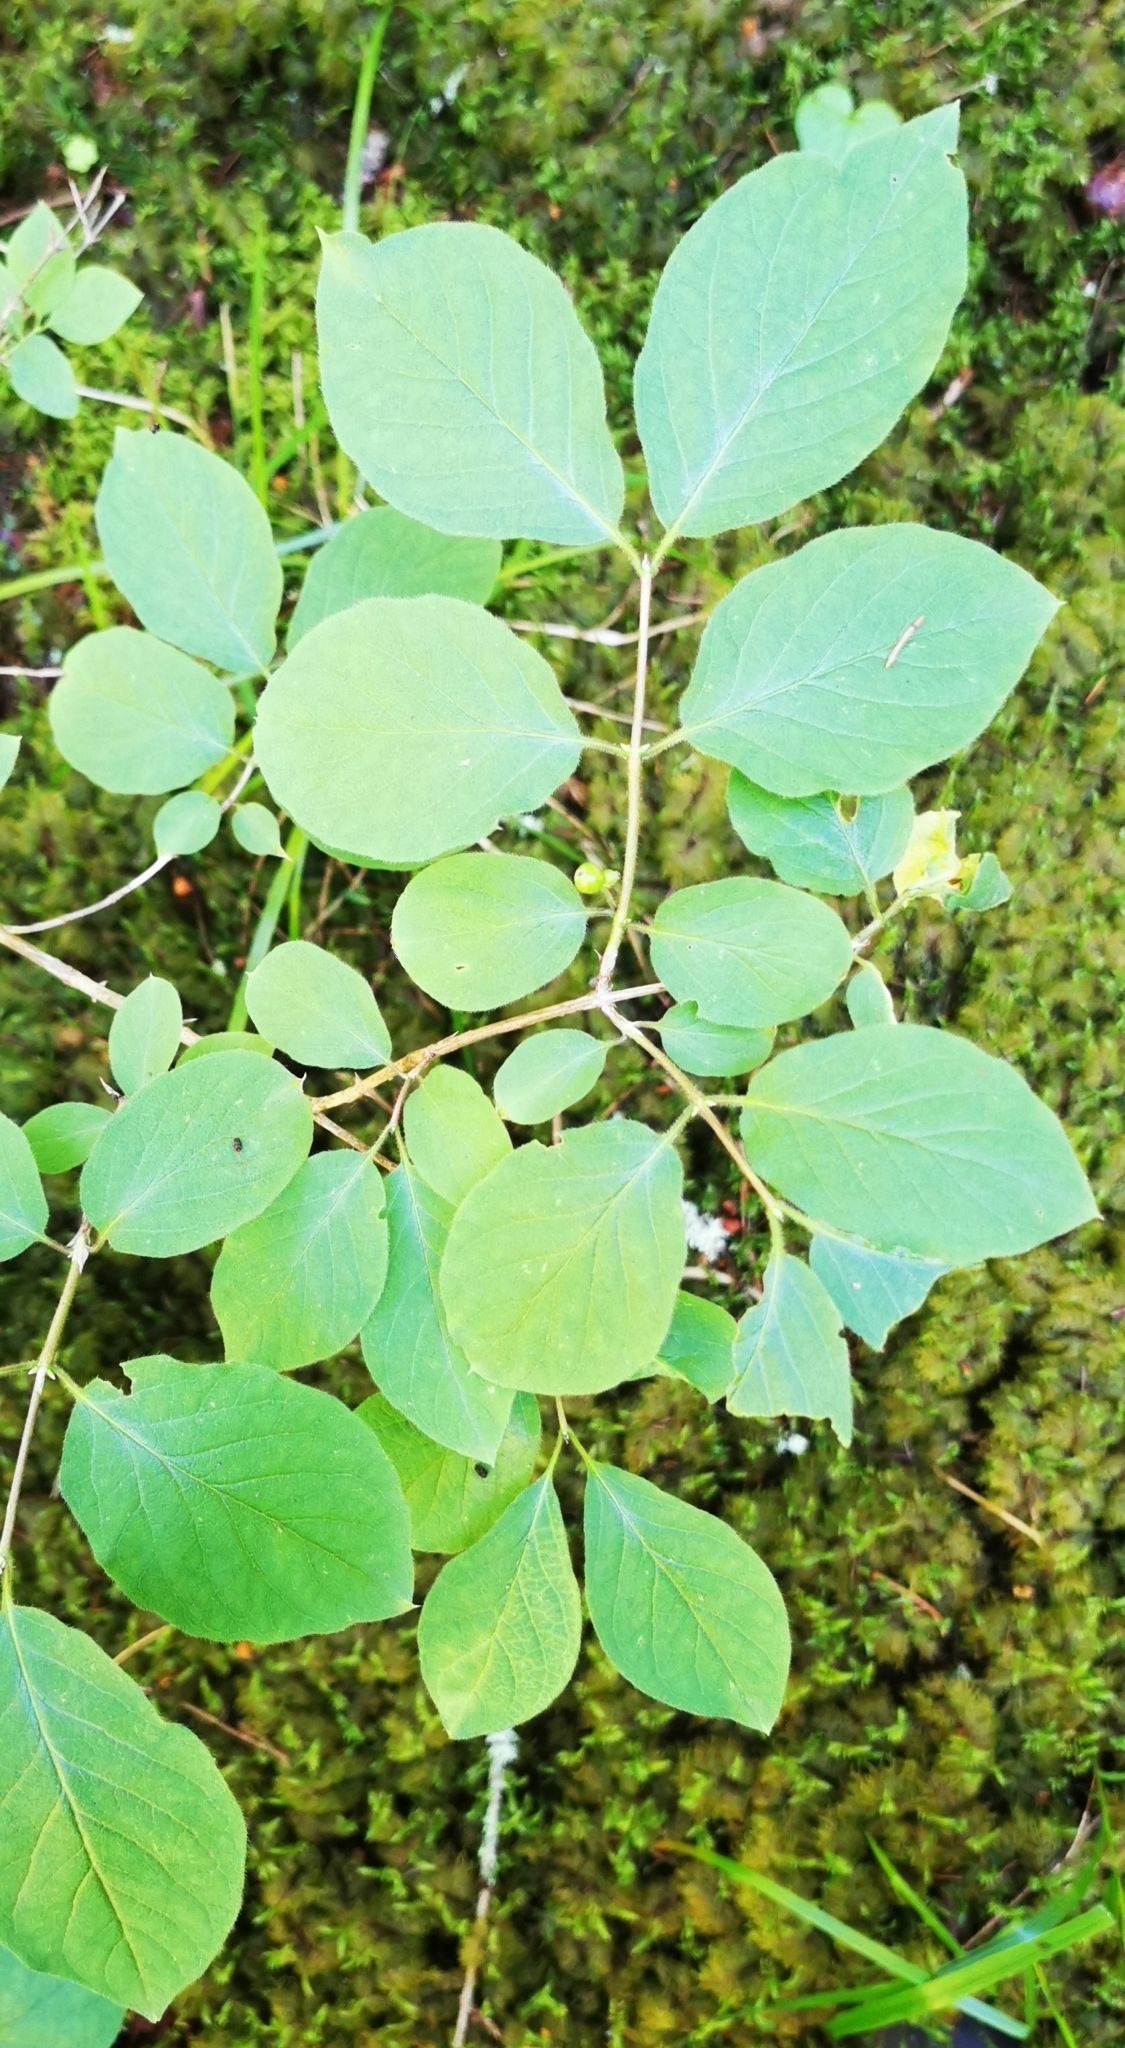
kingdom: Plantae
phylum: Tracheophyta
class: Magnoliopsida
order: Dipsacales
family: Caprifoliaceae
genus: Lonicera
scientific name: Lonicera xylosteum
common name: Fly honeysuckle
